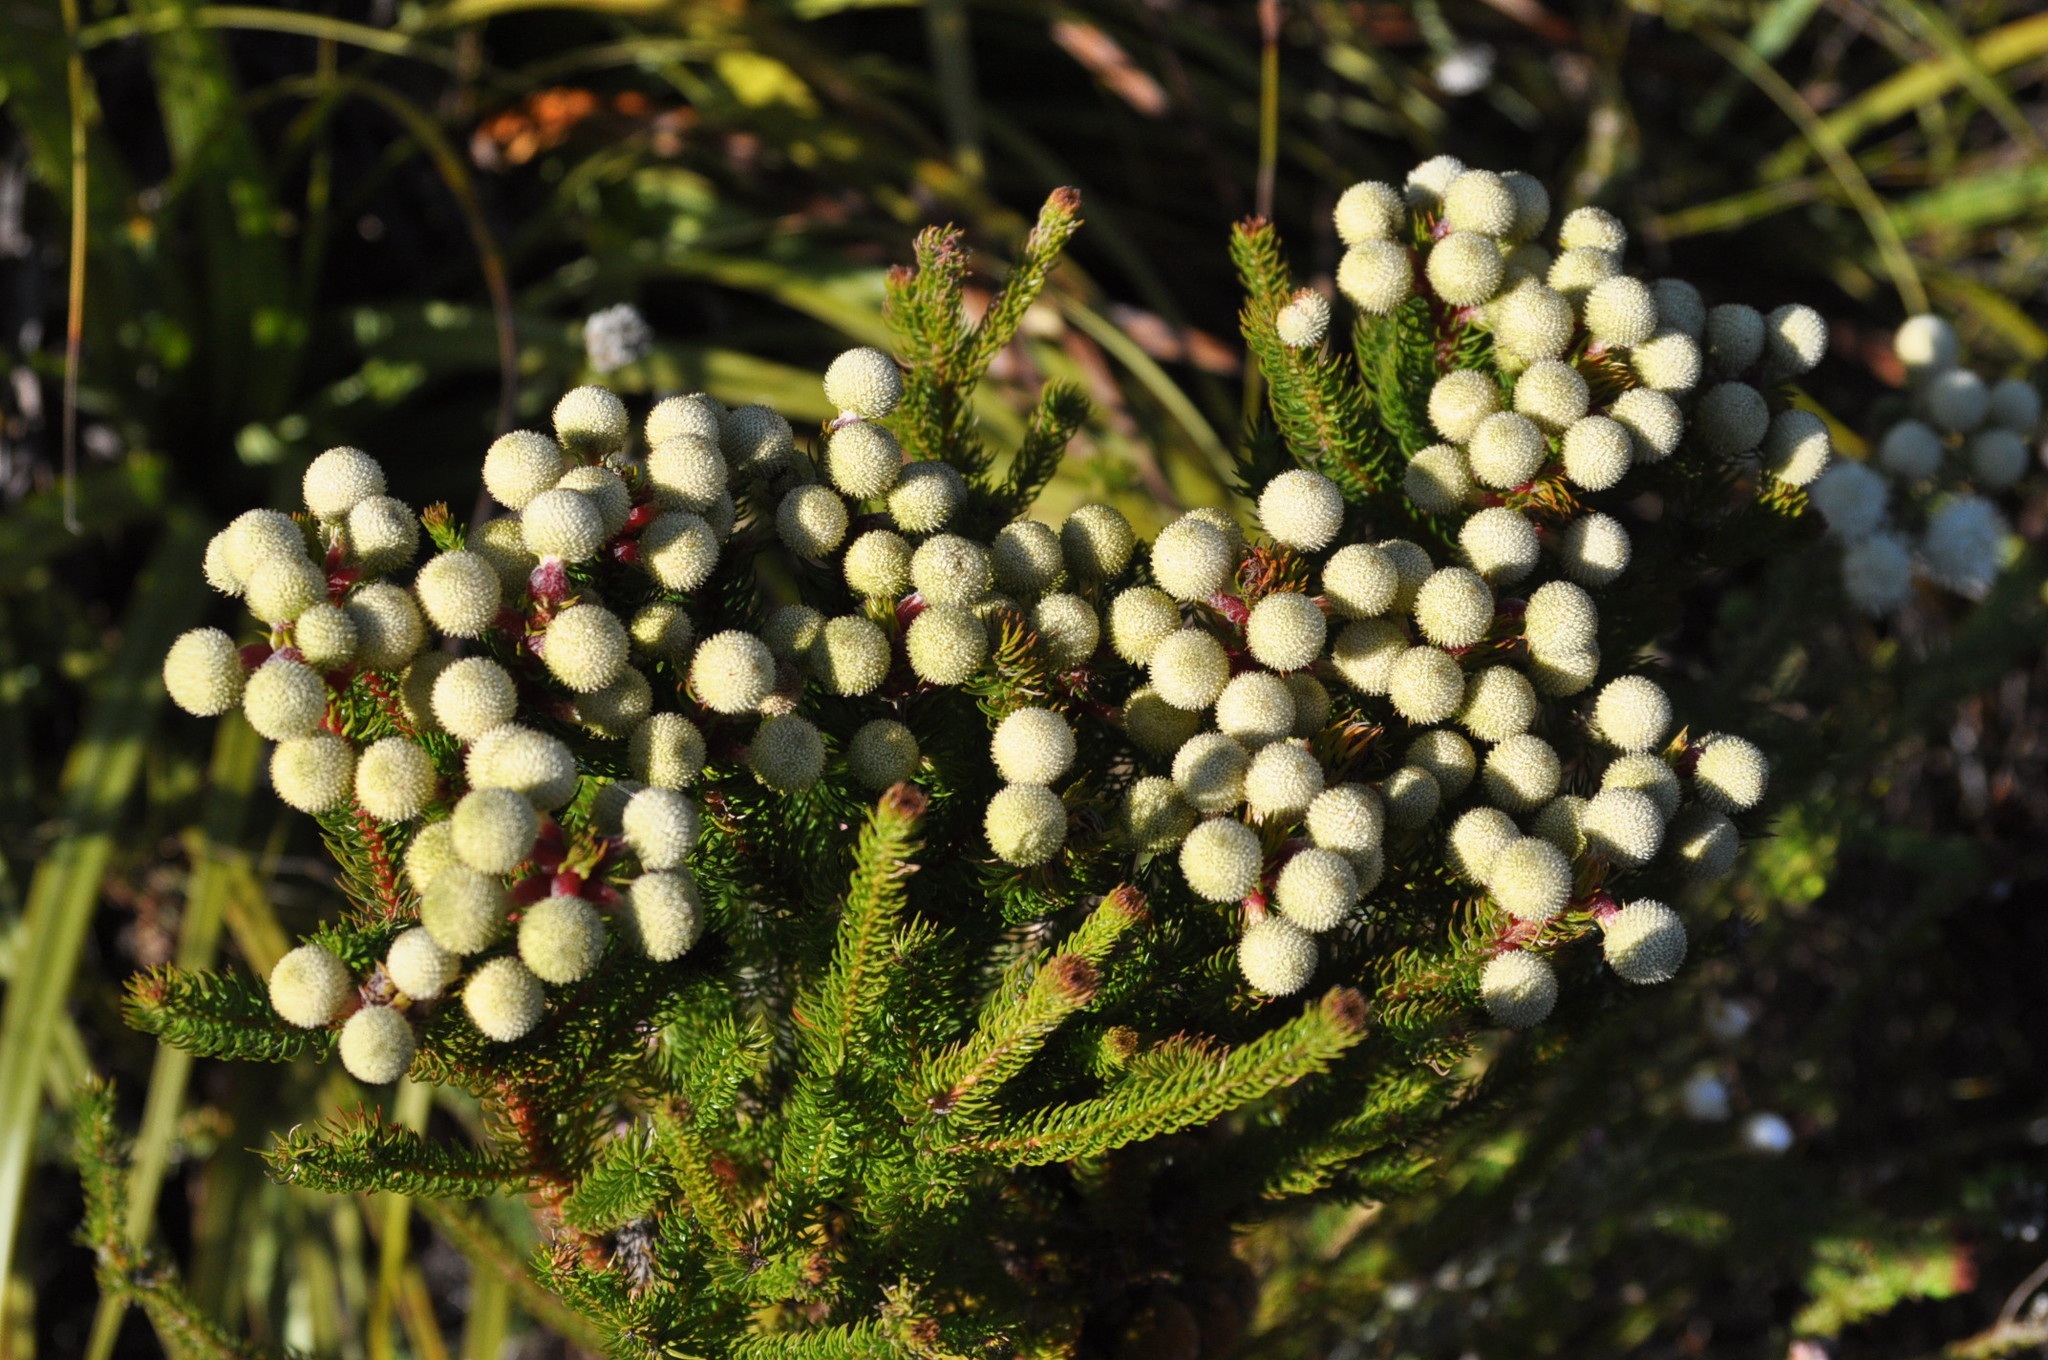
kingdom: Plantae
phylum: Tracheophyta
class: Magnoliopsida
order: Bruniales
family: Bruniaceae
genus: Berzelia
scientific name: Berzelia abrotanoides
